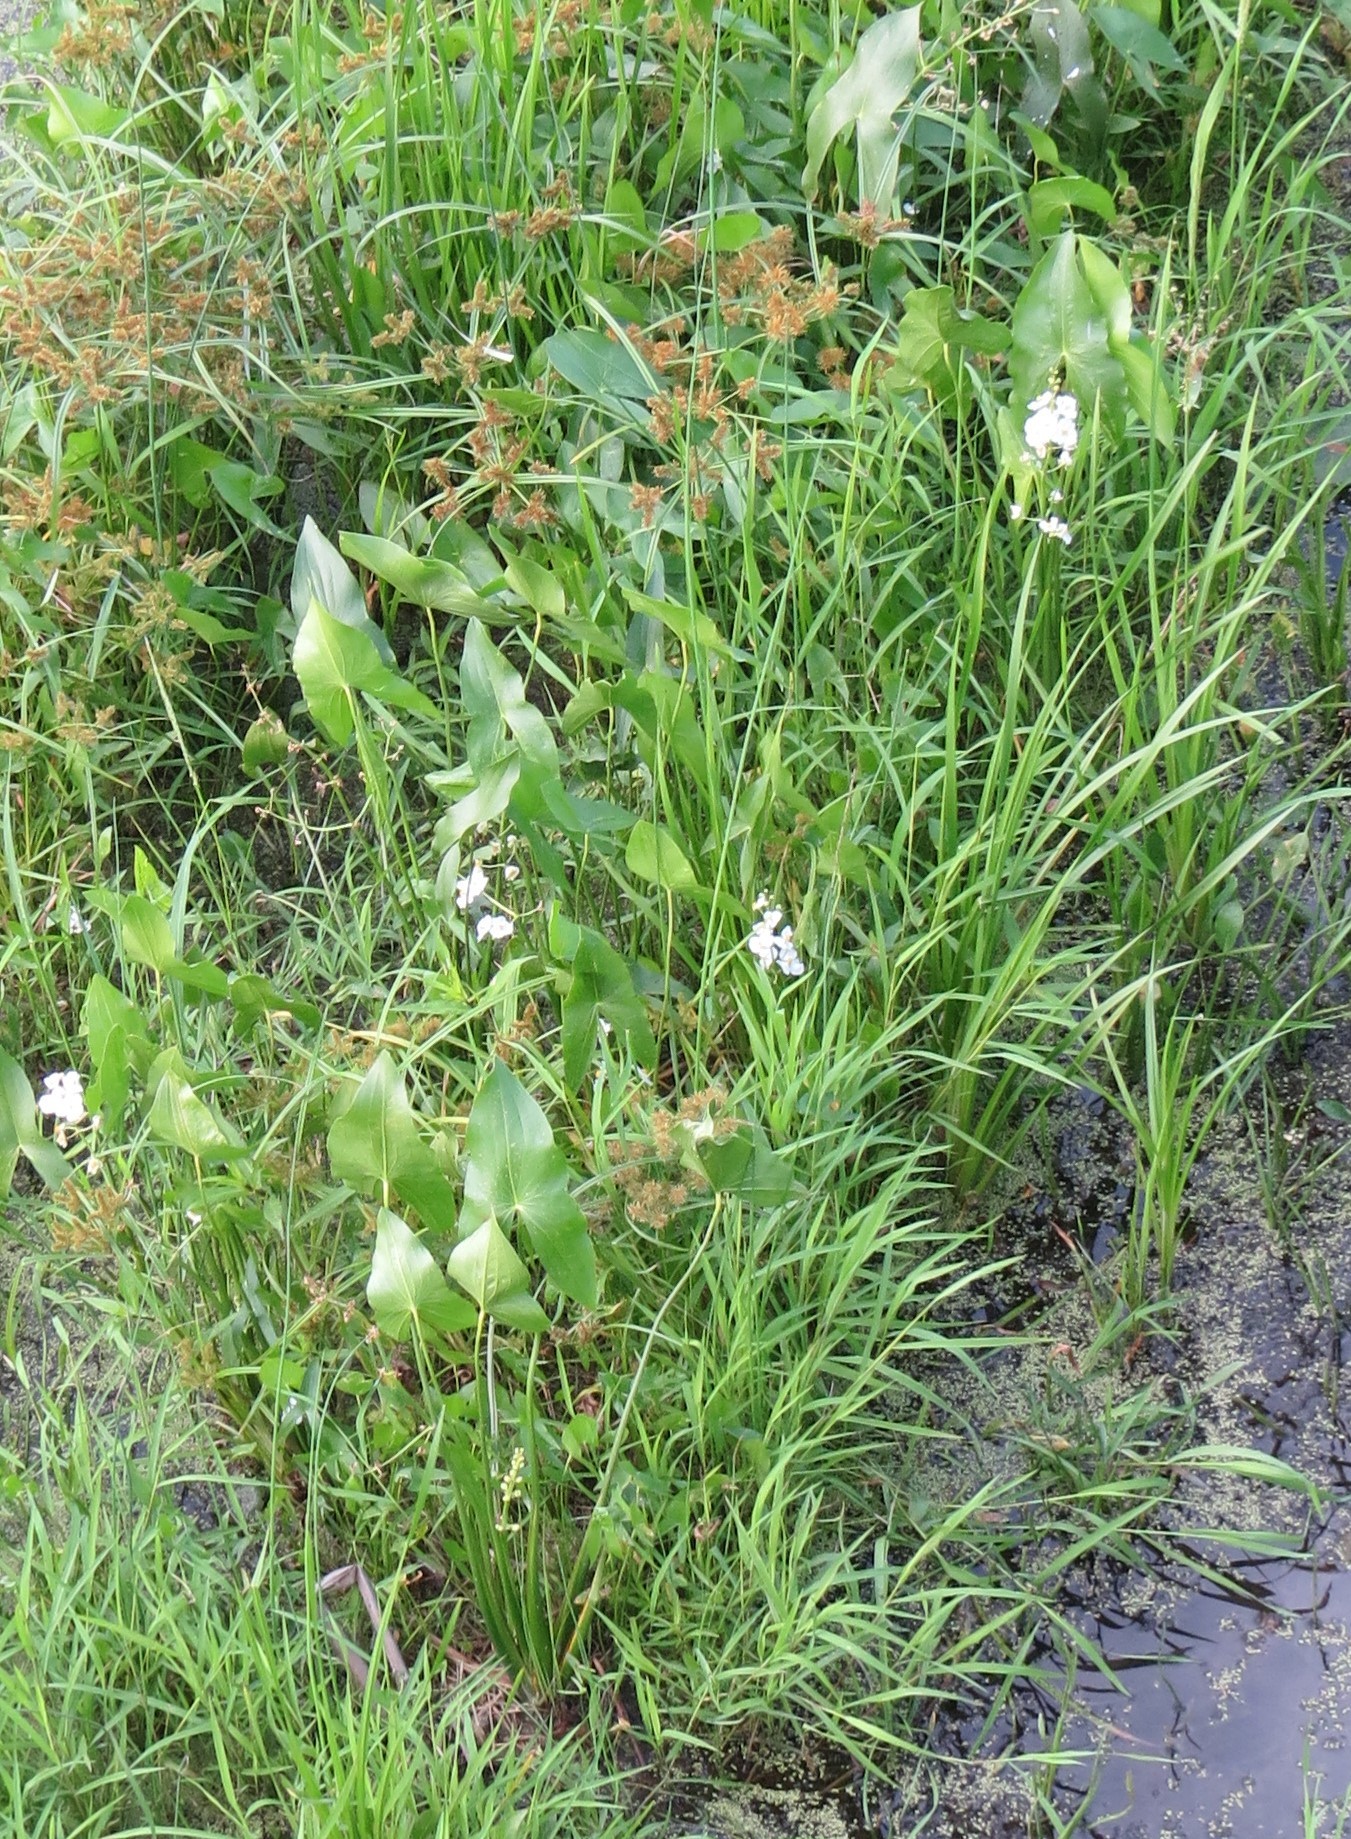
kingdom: Plantae
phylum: Tracheophyta
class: Liliopsida
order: Alismatales
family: Alismataceae
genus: Sagittaria
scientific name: Sagittaria latifolia
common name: Duck-potato
